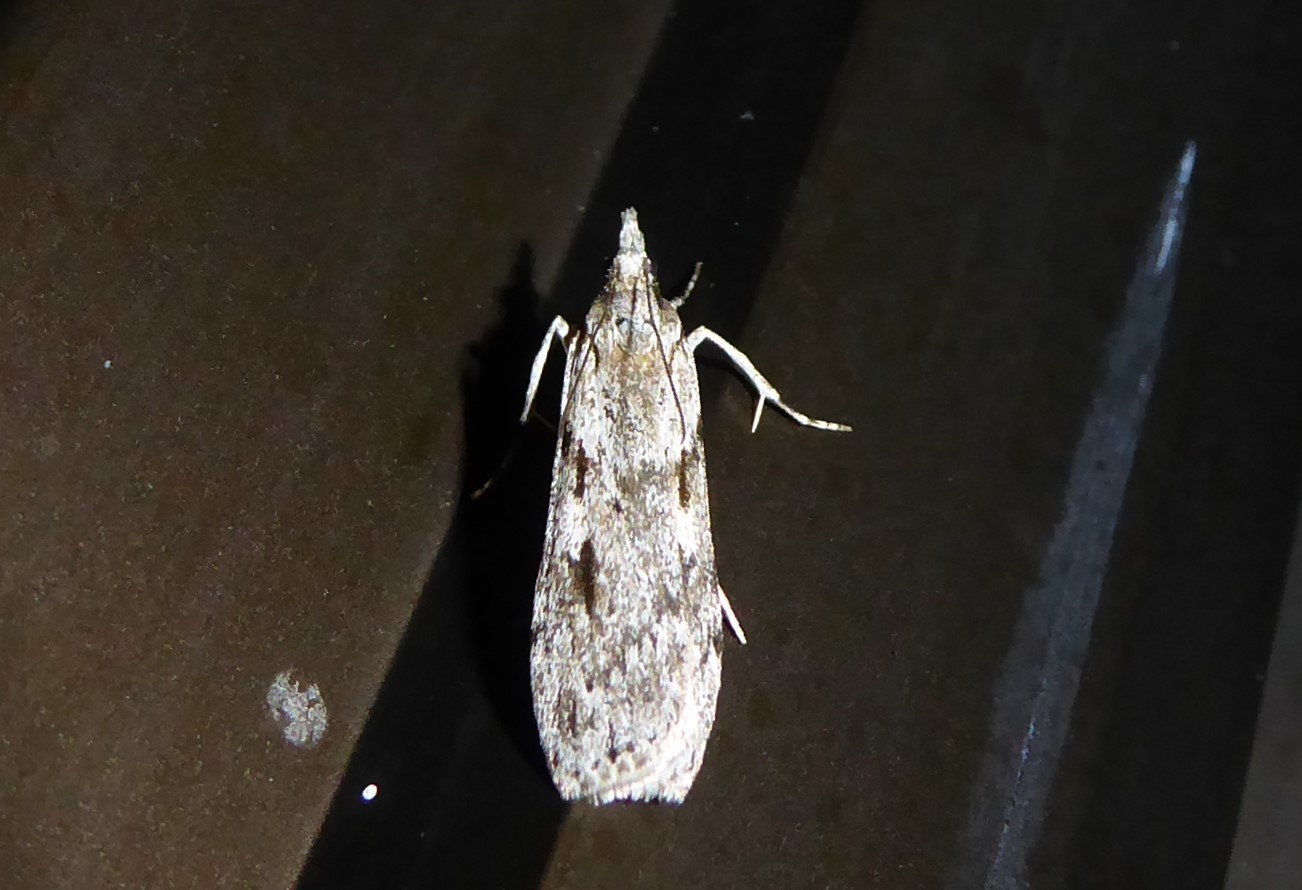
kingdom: Animalia
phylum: Arthropoda
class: Insecta
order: Lepidoptera
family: Crambidae
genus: Scoparia
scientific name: Scoparia halopis
